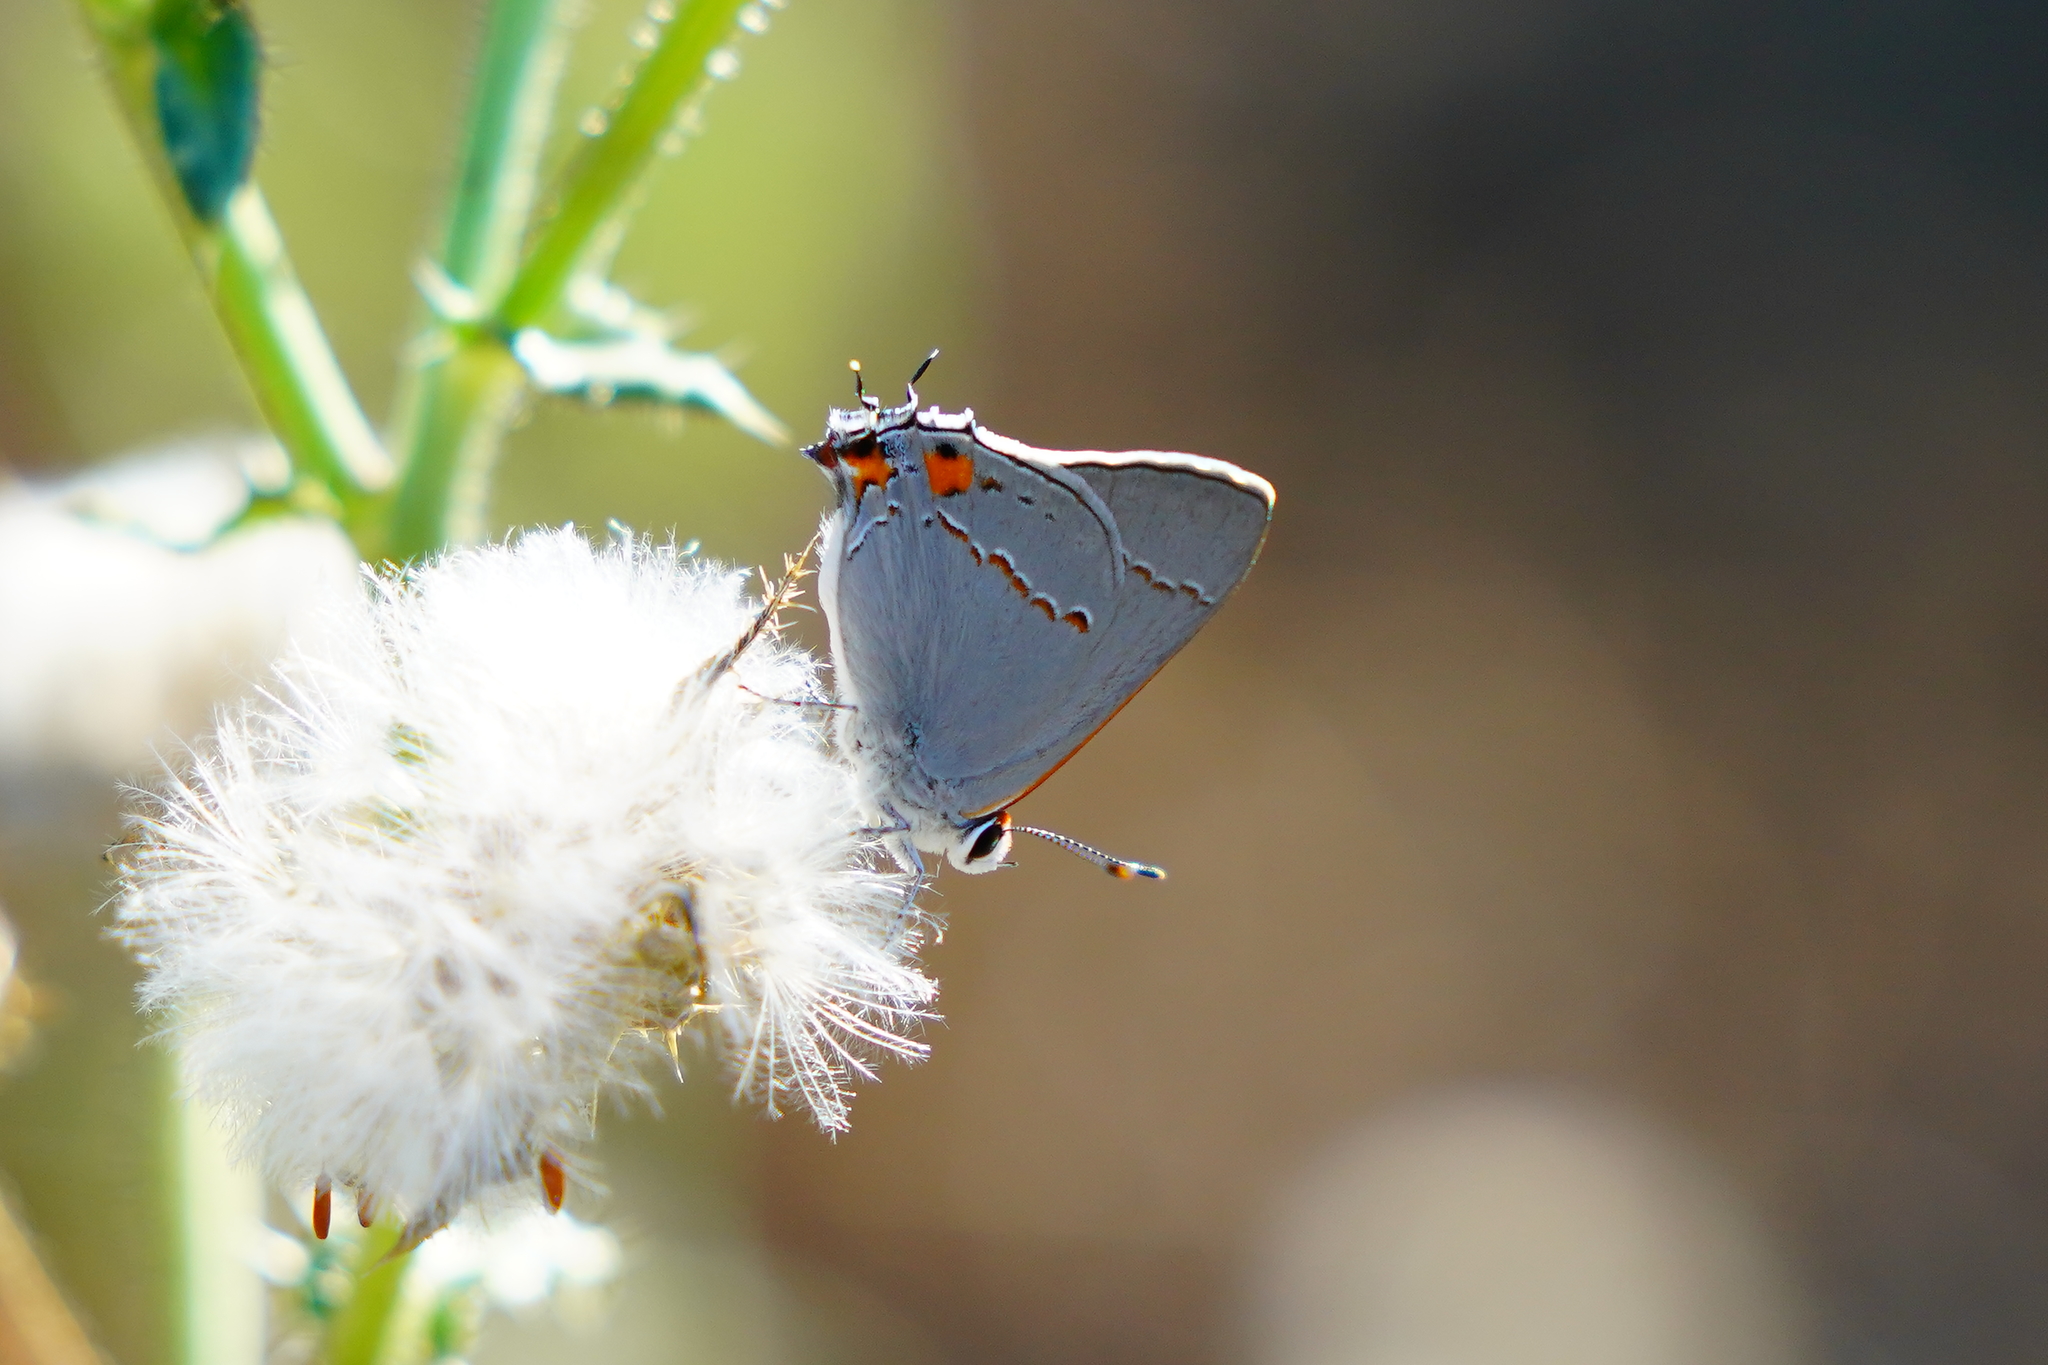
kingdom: Animalia
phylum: Arthropoda
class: Insecta
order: Lepidoptera
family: Lycaenidae
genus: Strymon
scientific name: Strymon melinus
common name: Gray hairstreak
